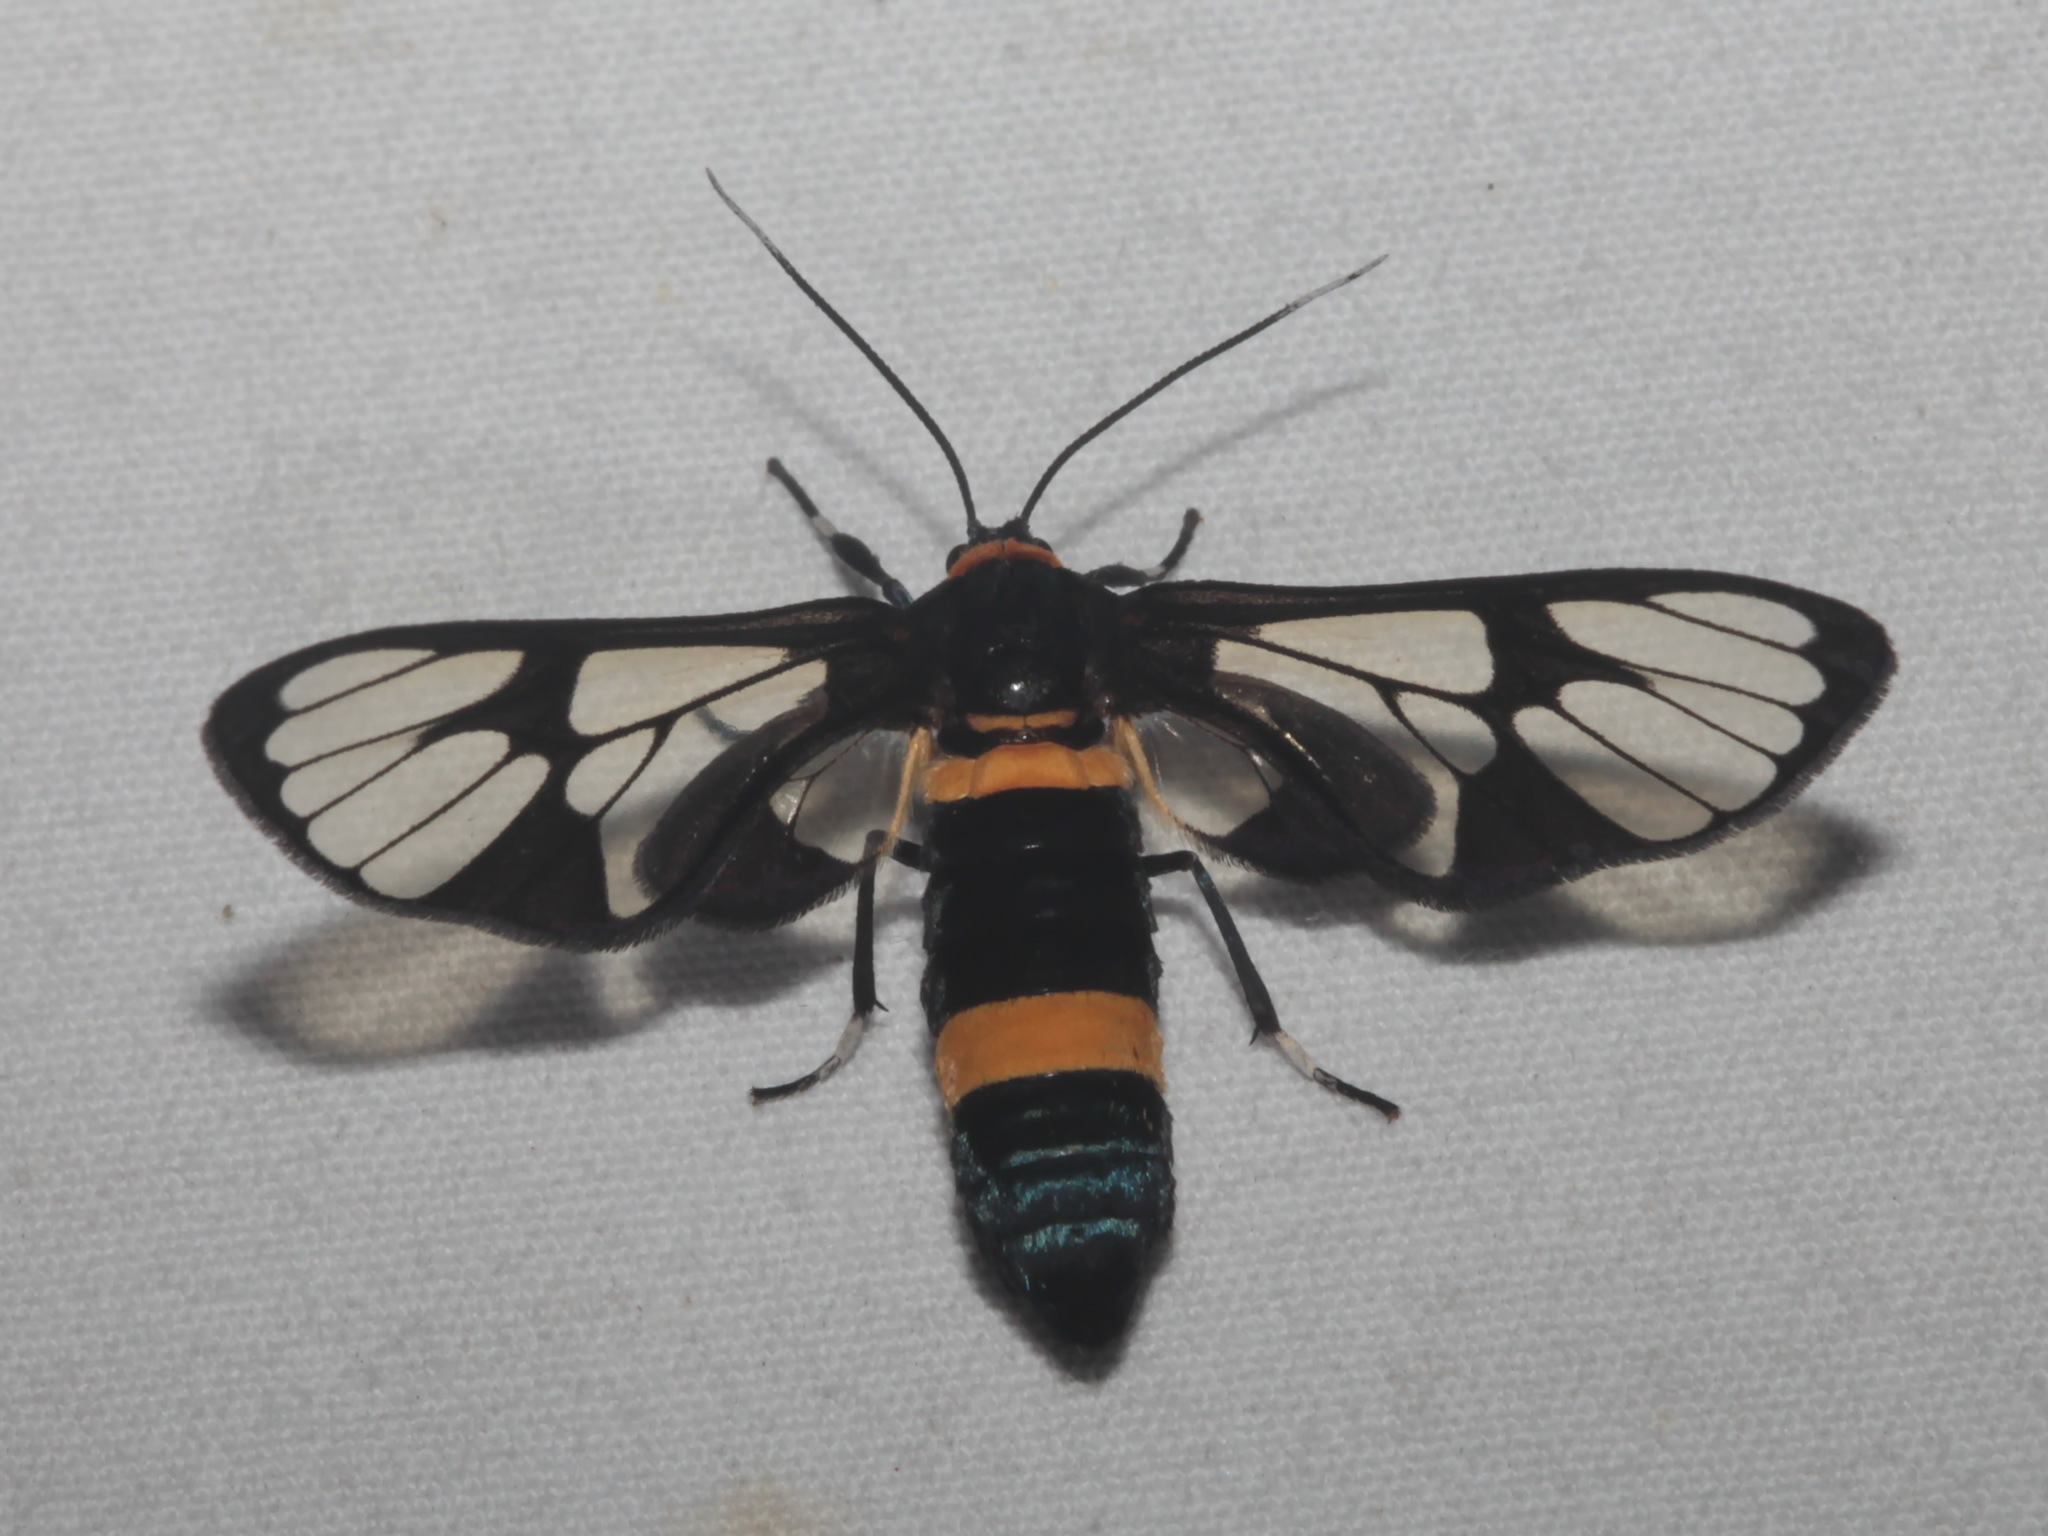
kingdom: Animalia
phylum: Arthropoda
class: Insecta
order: Lepidoptera
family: Erebidae
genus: Syntomoides
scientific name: Syntomoides imaon
